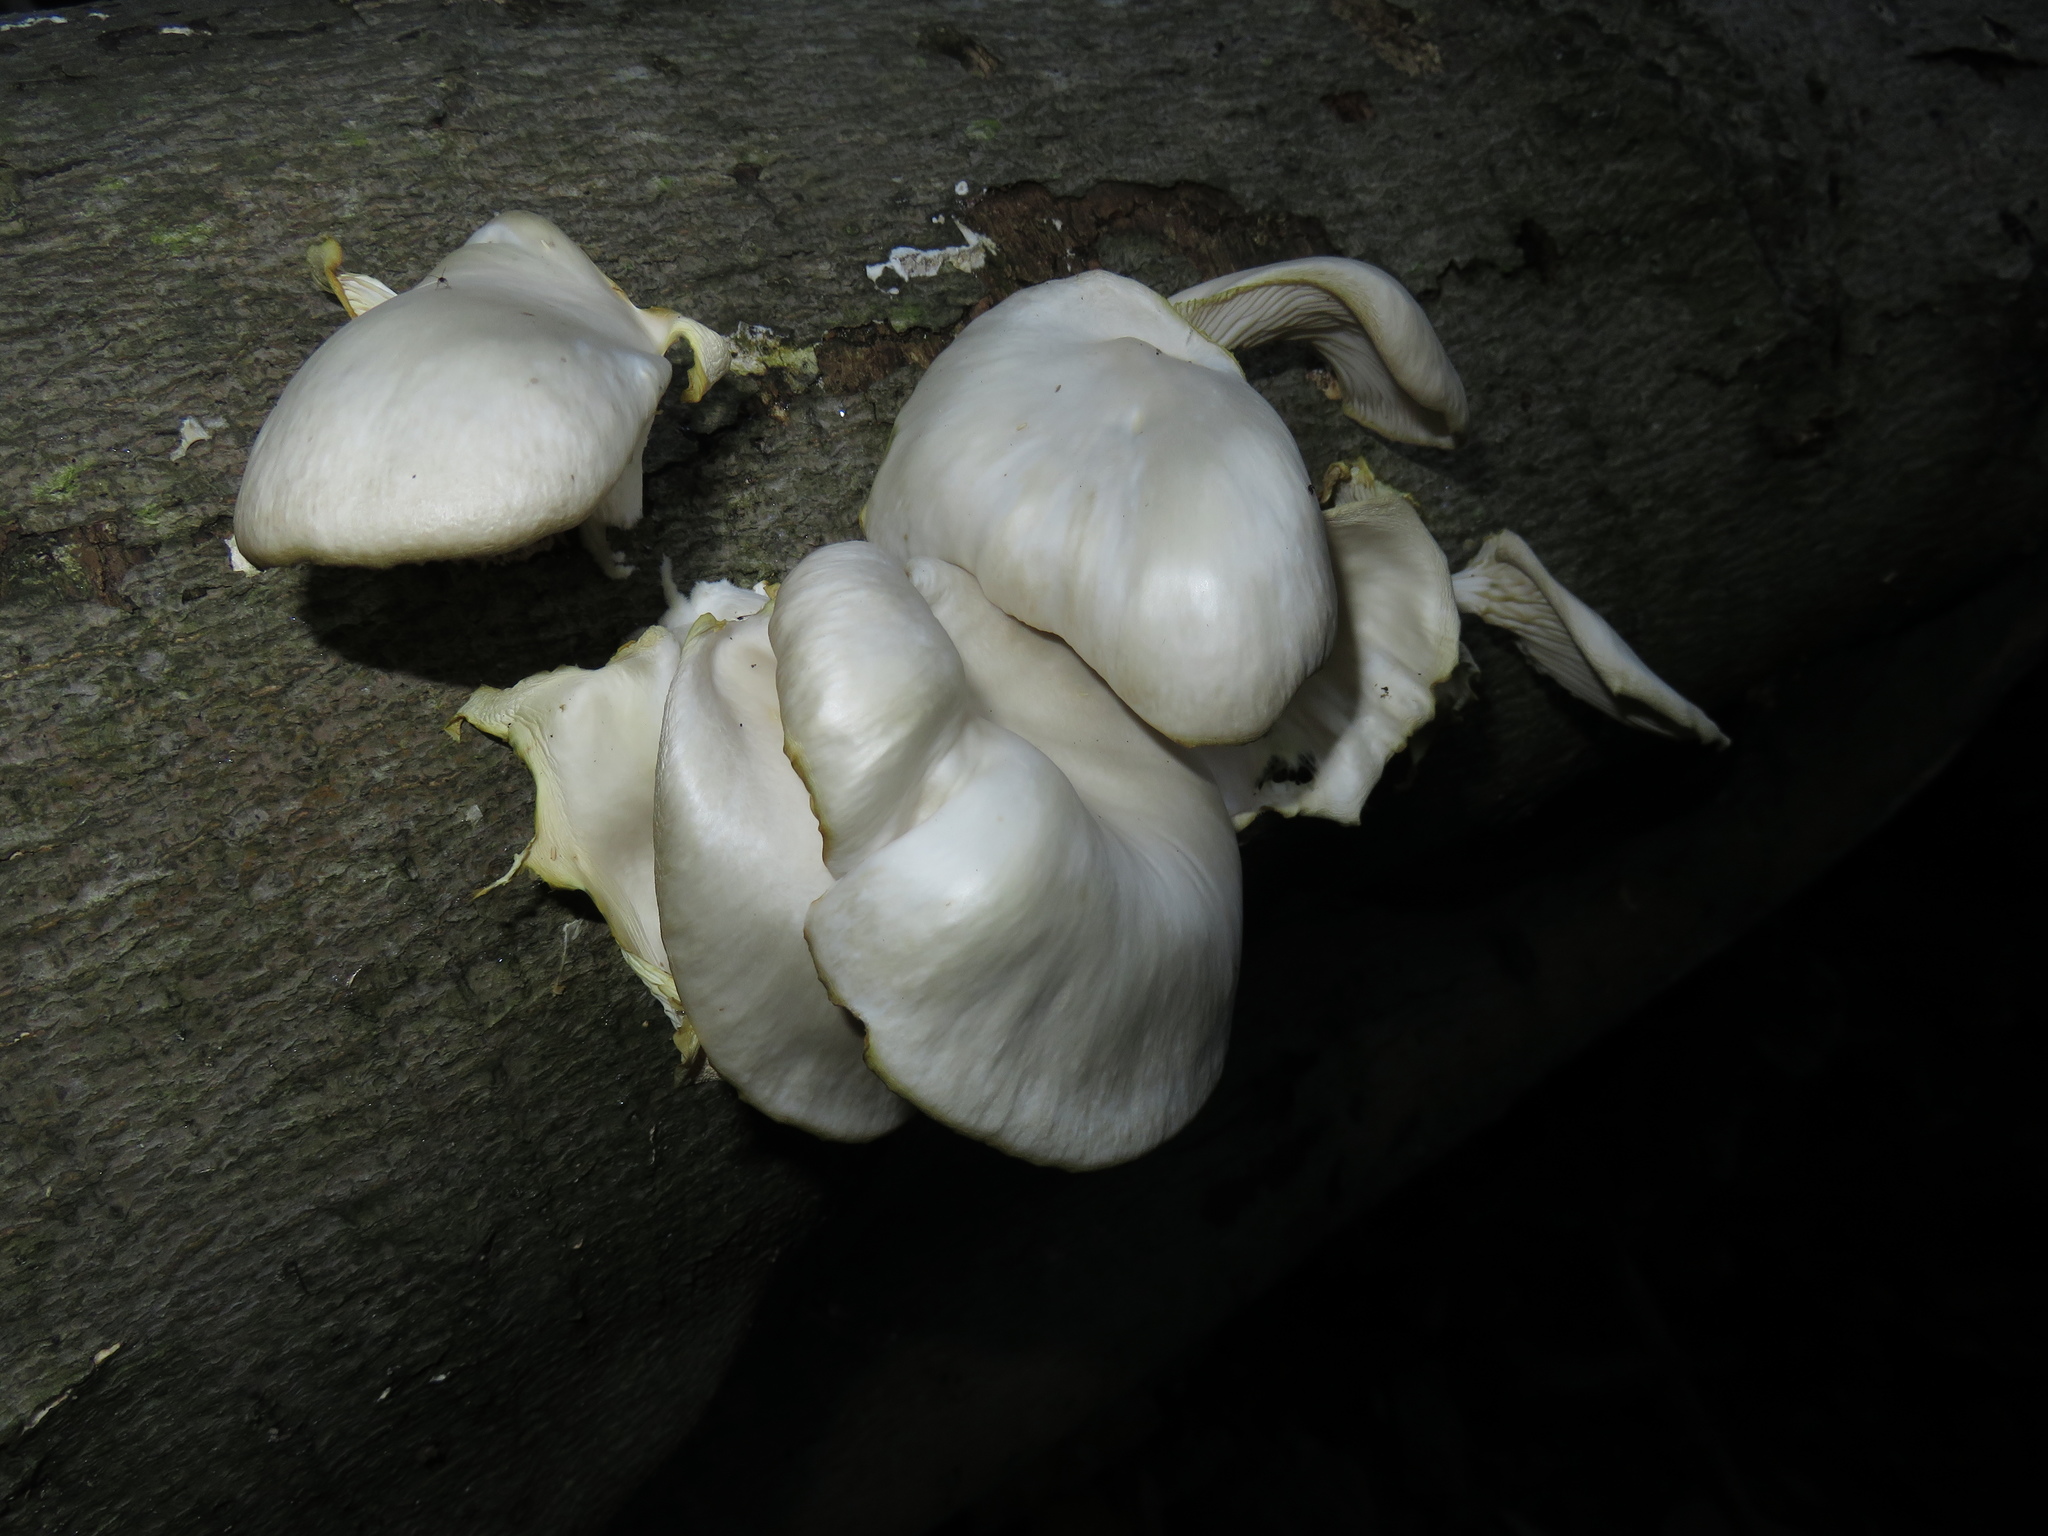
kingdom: Fungi
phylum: Basidiomycota
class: Agaricomycetes
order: Agaricales
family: Pleurotaceae
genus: Pleurotus
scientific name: Pleurotus pulmonarius
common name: Pale oyster
